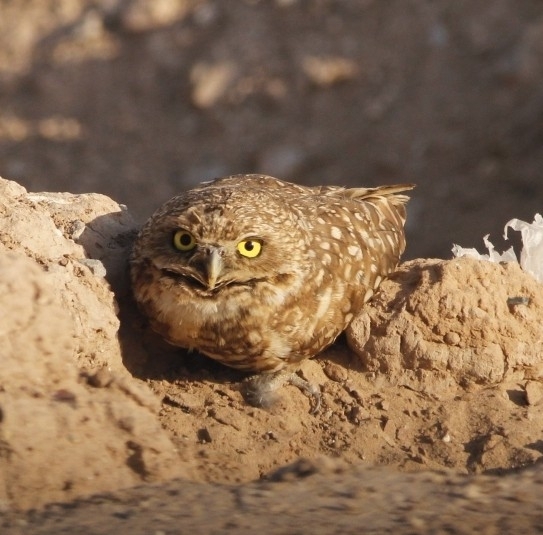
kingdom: Animalia
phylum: Chordata
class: Aves
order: Strigiformes
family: Strigidae
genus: Athene
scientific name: Athene cunicularia
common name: Burrowing owl
